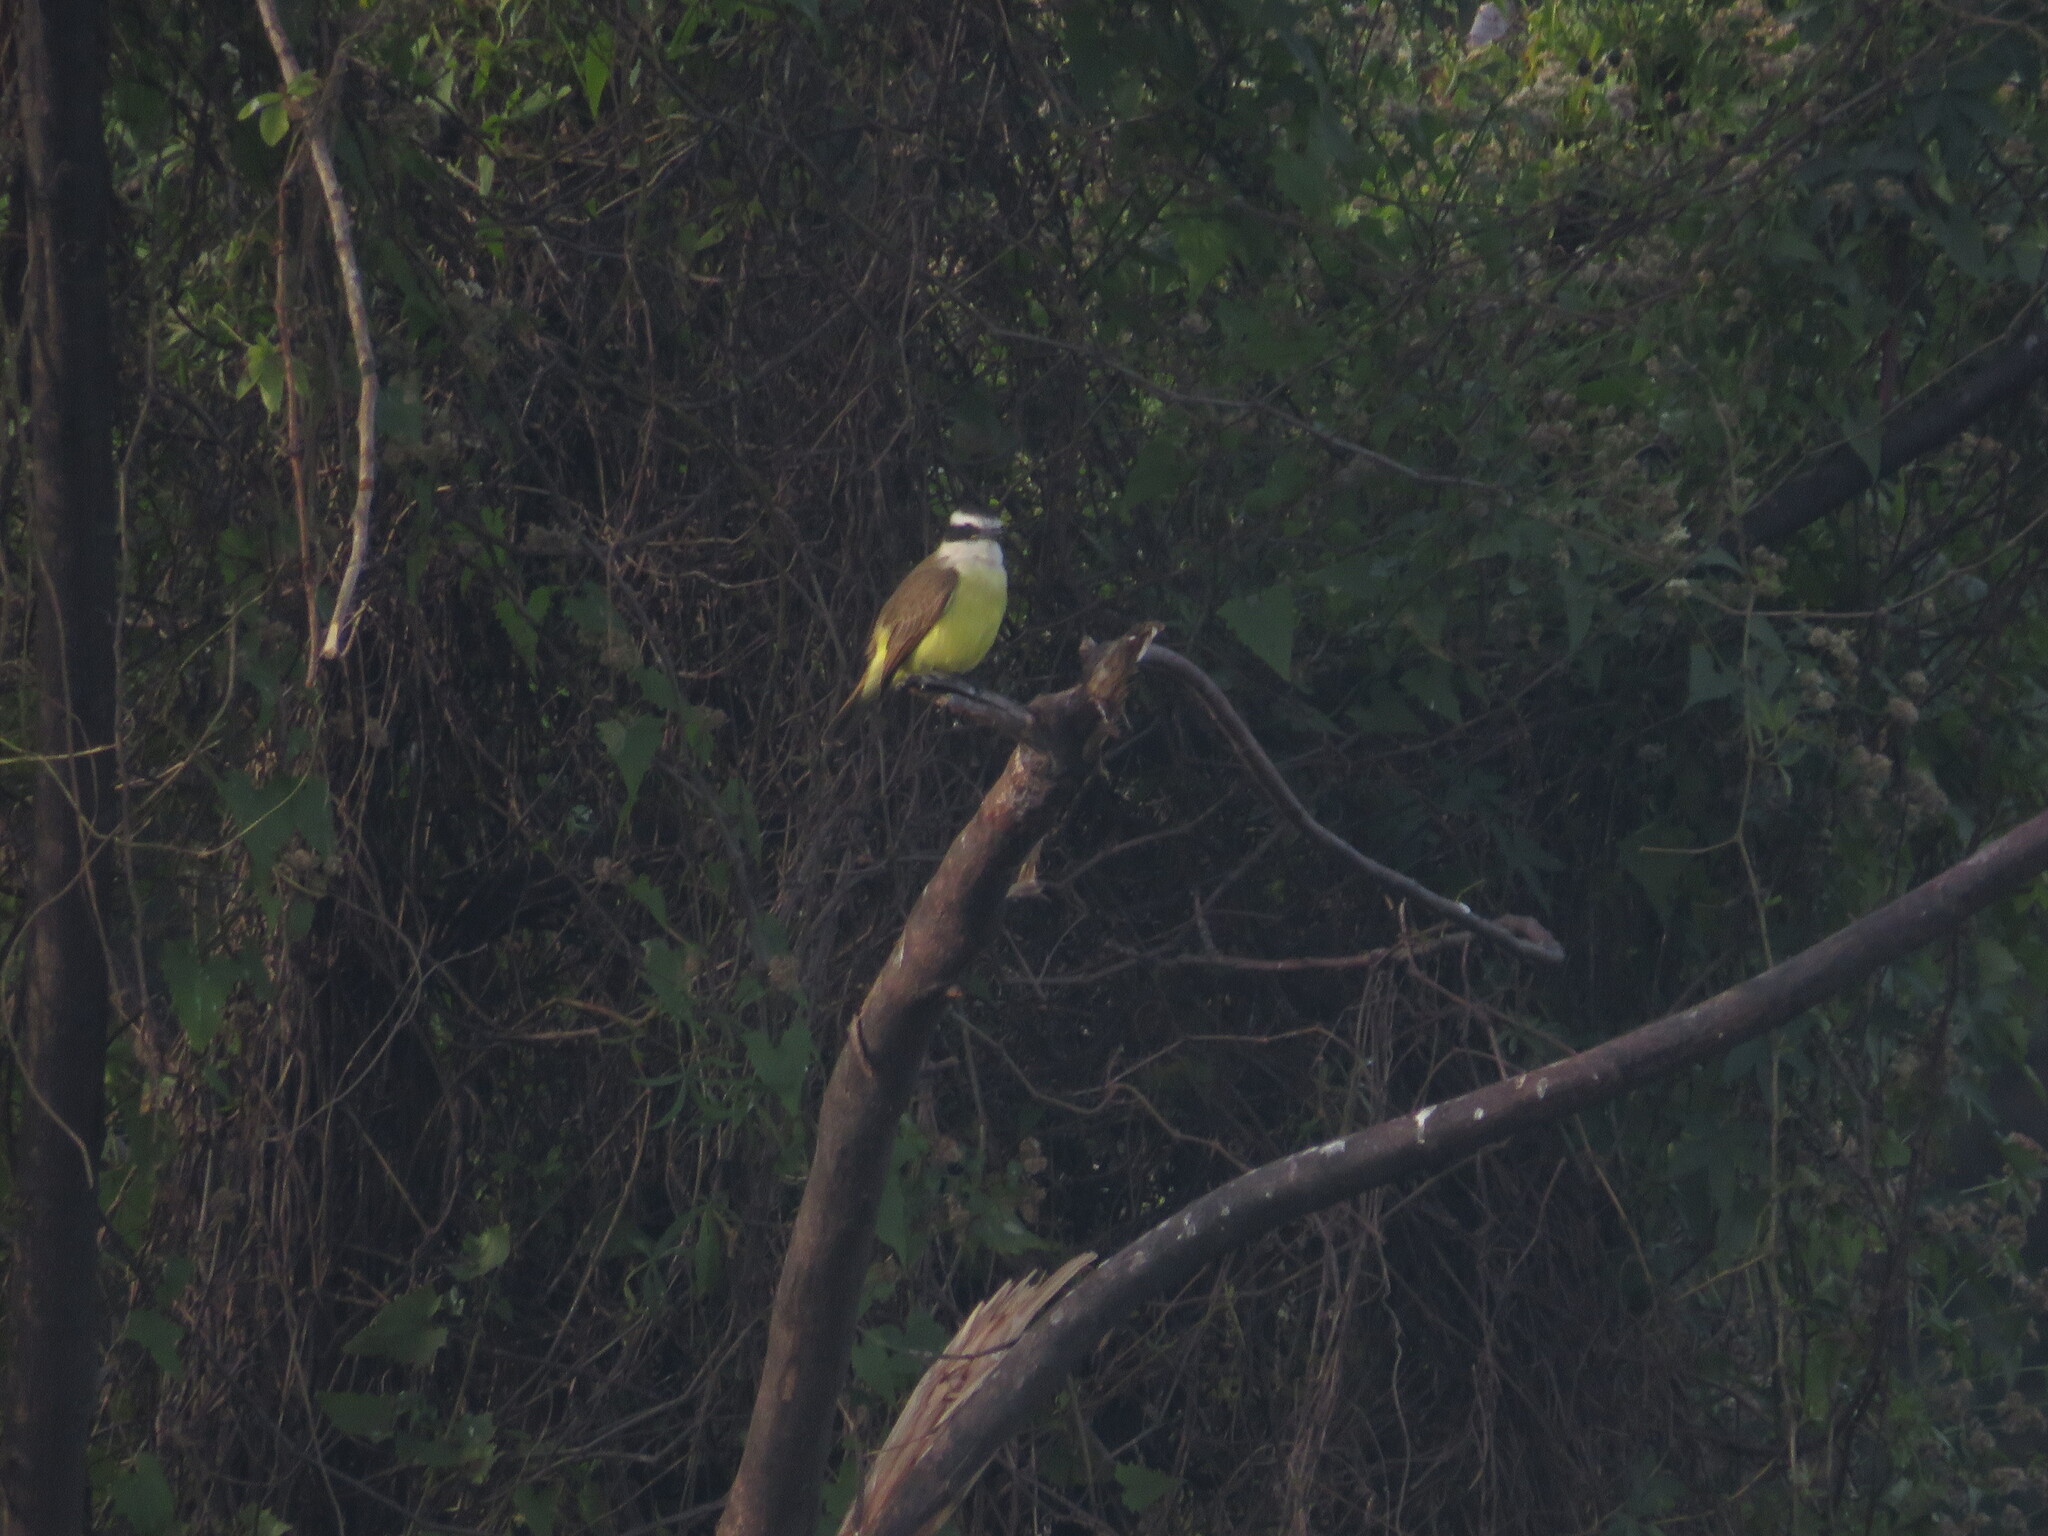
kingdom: Animalia
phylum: Chordata
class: Aves
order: Passeriformes
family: Tyrannidae
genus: Pitangus
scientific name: Pitangus sulphuratus
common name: Great kiskadee
